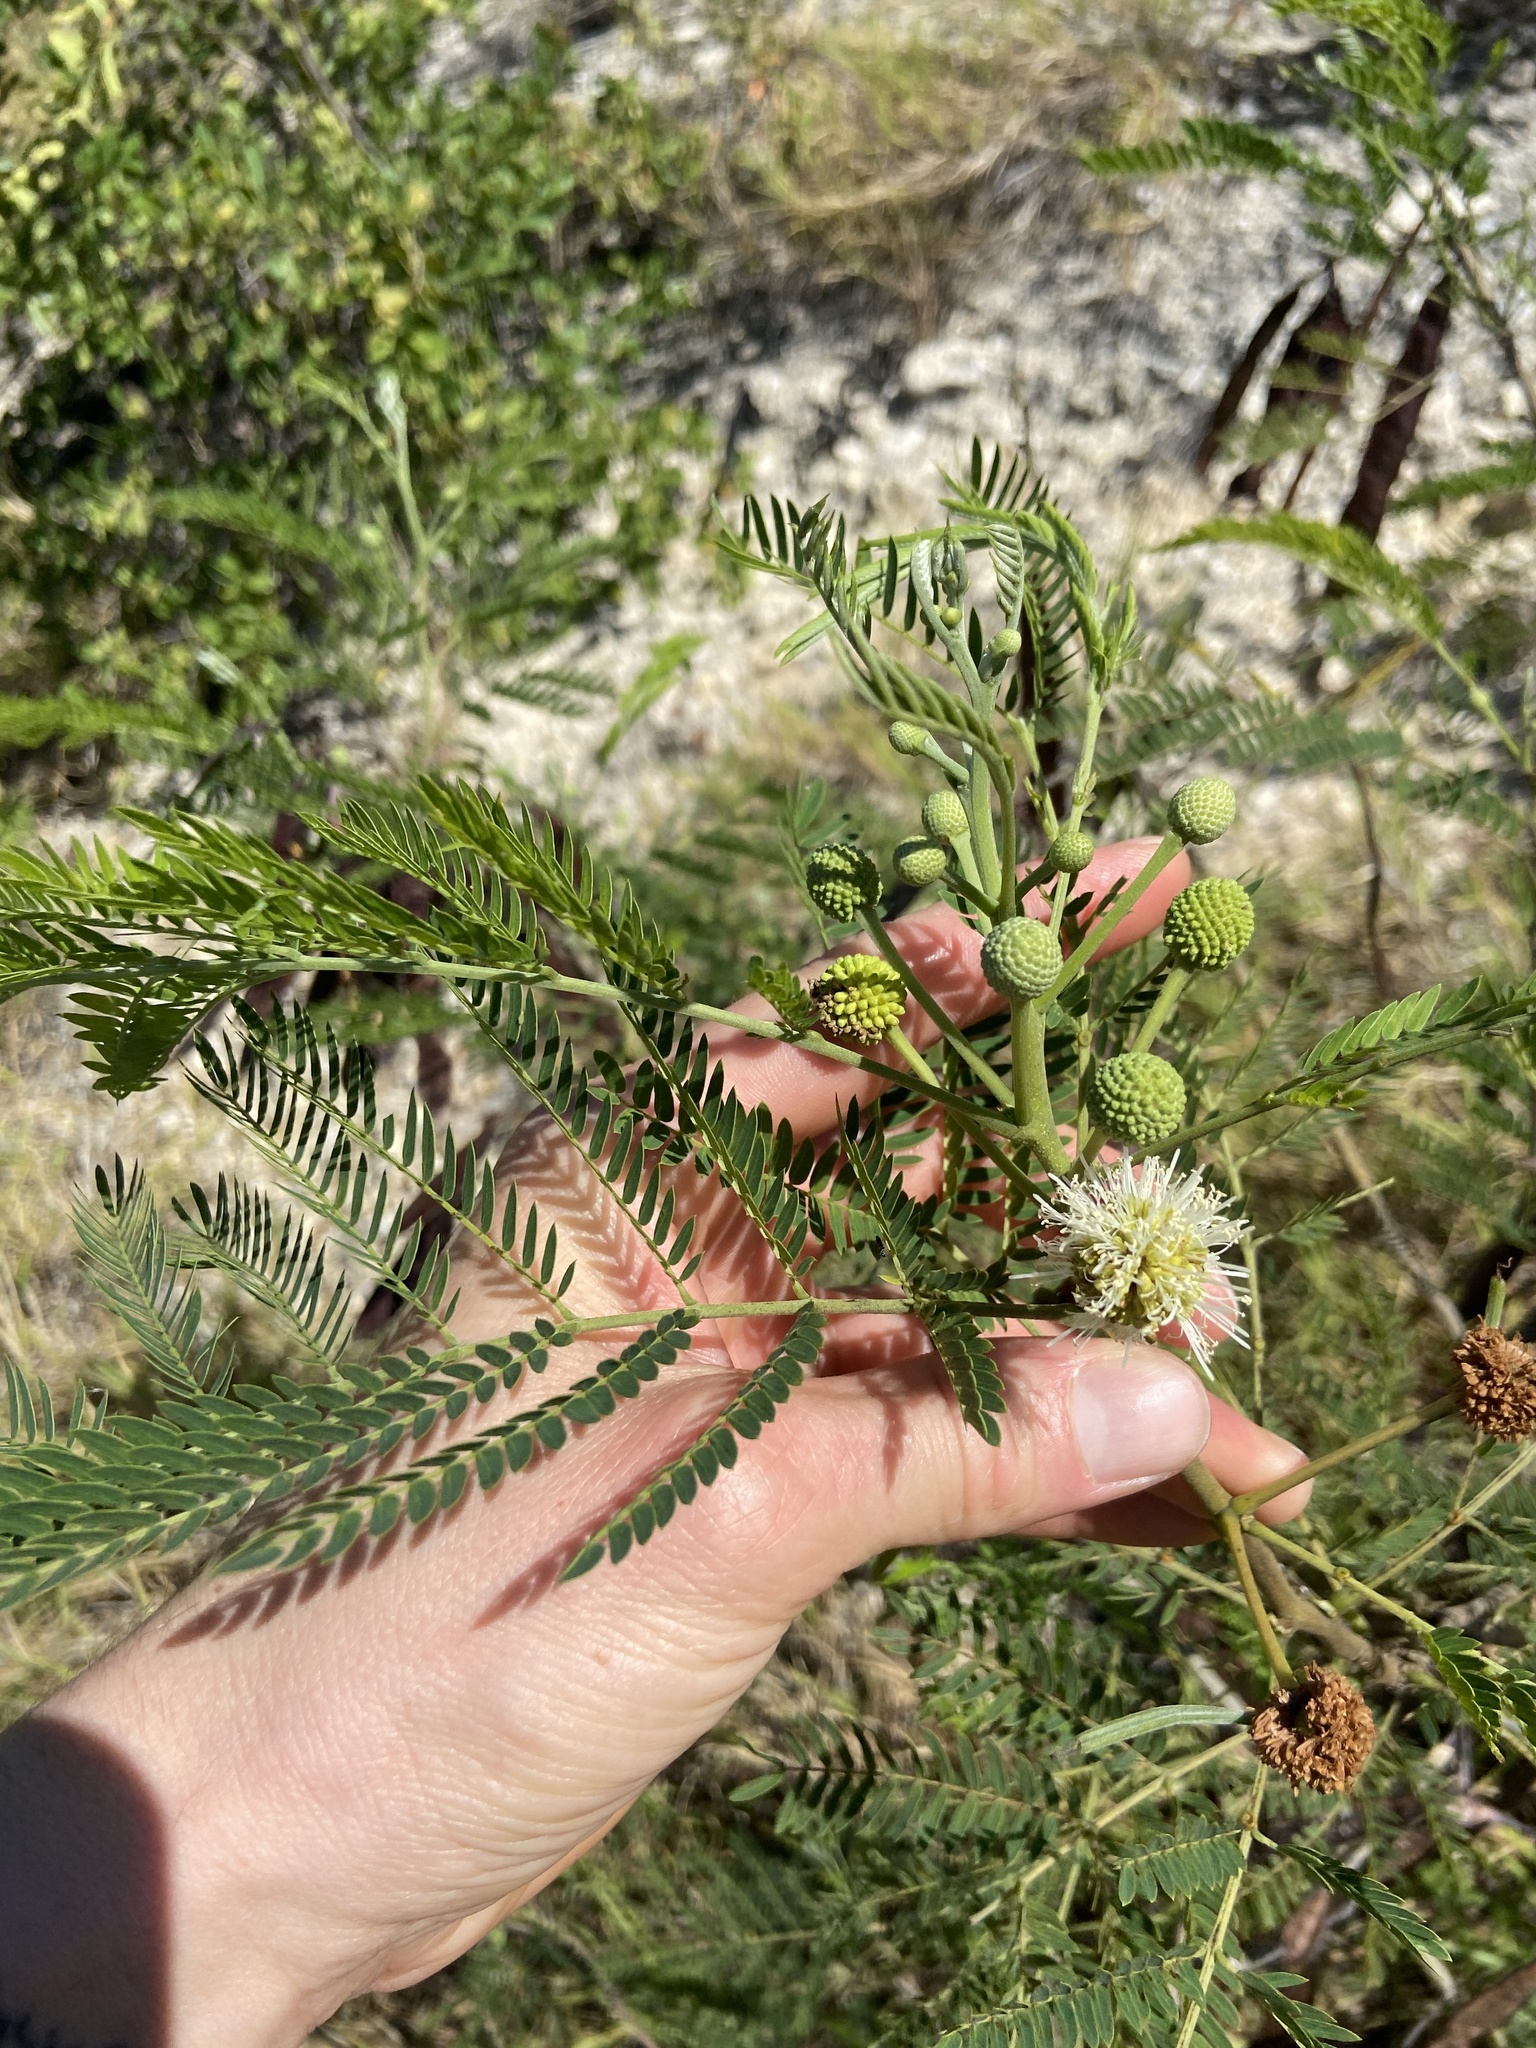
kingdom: Plantae
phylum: Tracheophyta
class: Magnoliopsida
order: Fabales
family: Fabaceae
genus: Leucaena
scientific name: Leucaena leucocephala
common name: White leadtree
